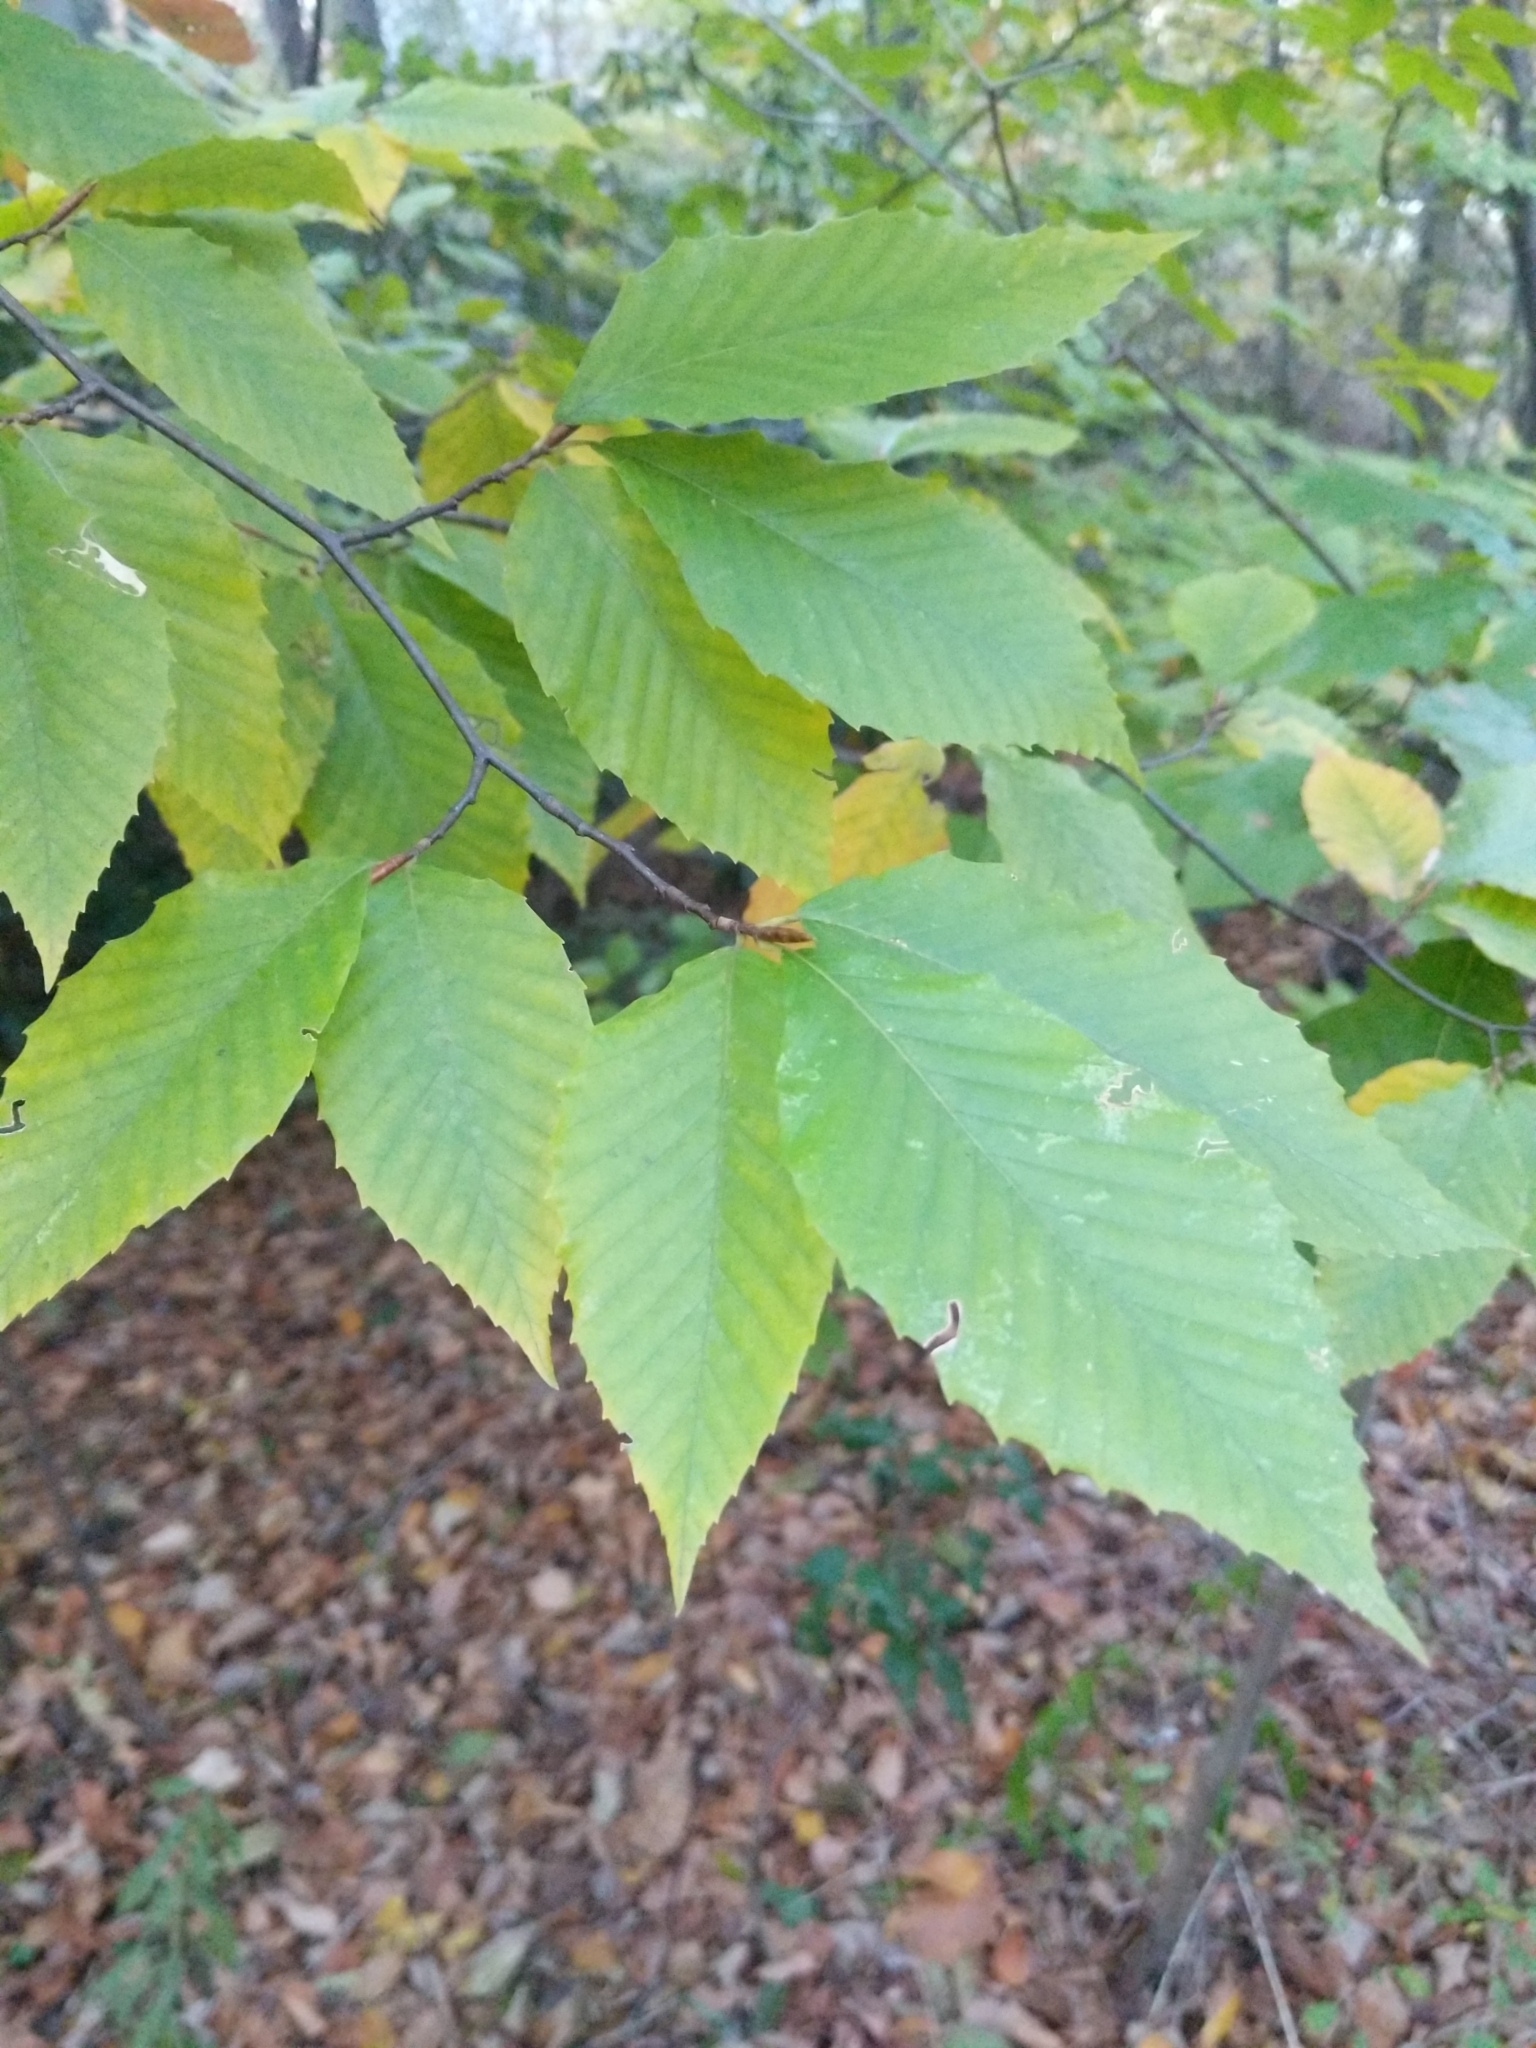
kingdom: Plantae
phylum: Tracheophyta
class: Magnoliopsida
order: Fagales
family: Fagaceae
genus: Fagus
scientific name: Fagus grandifolia
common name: American beech
